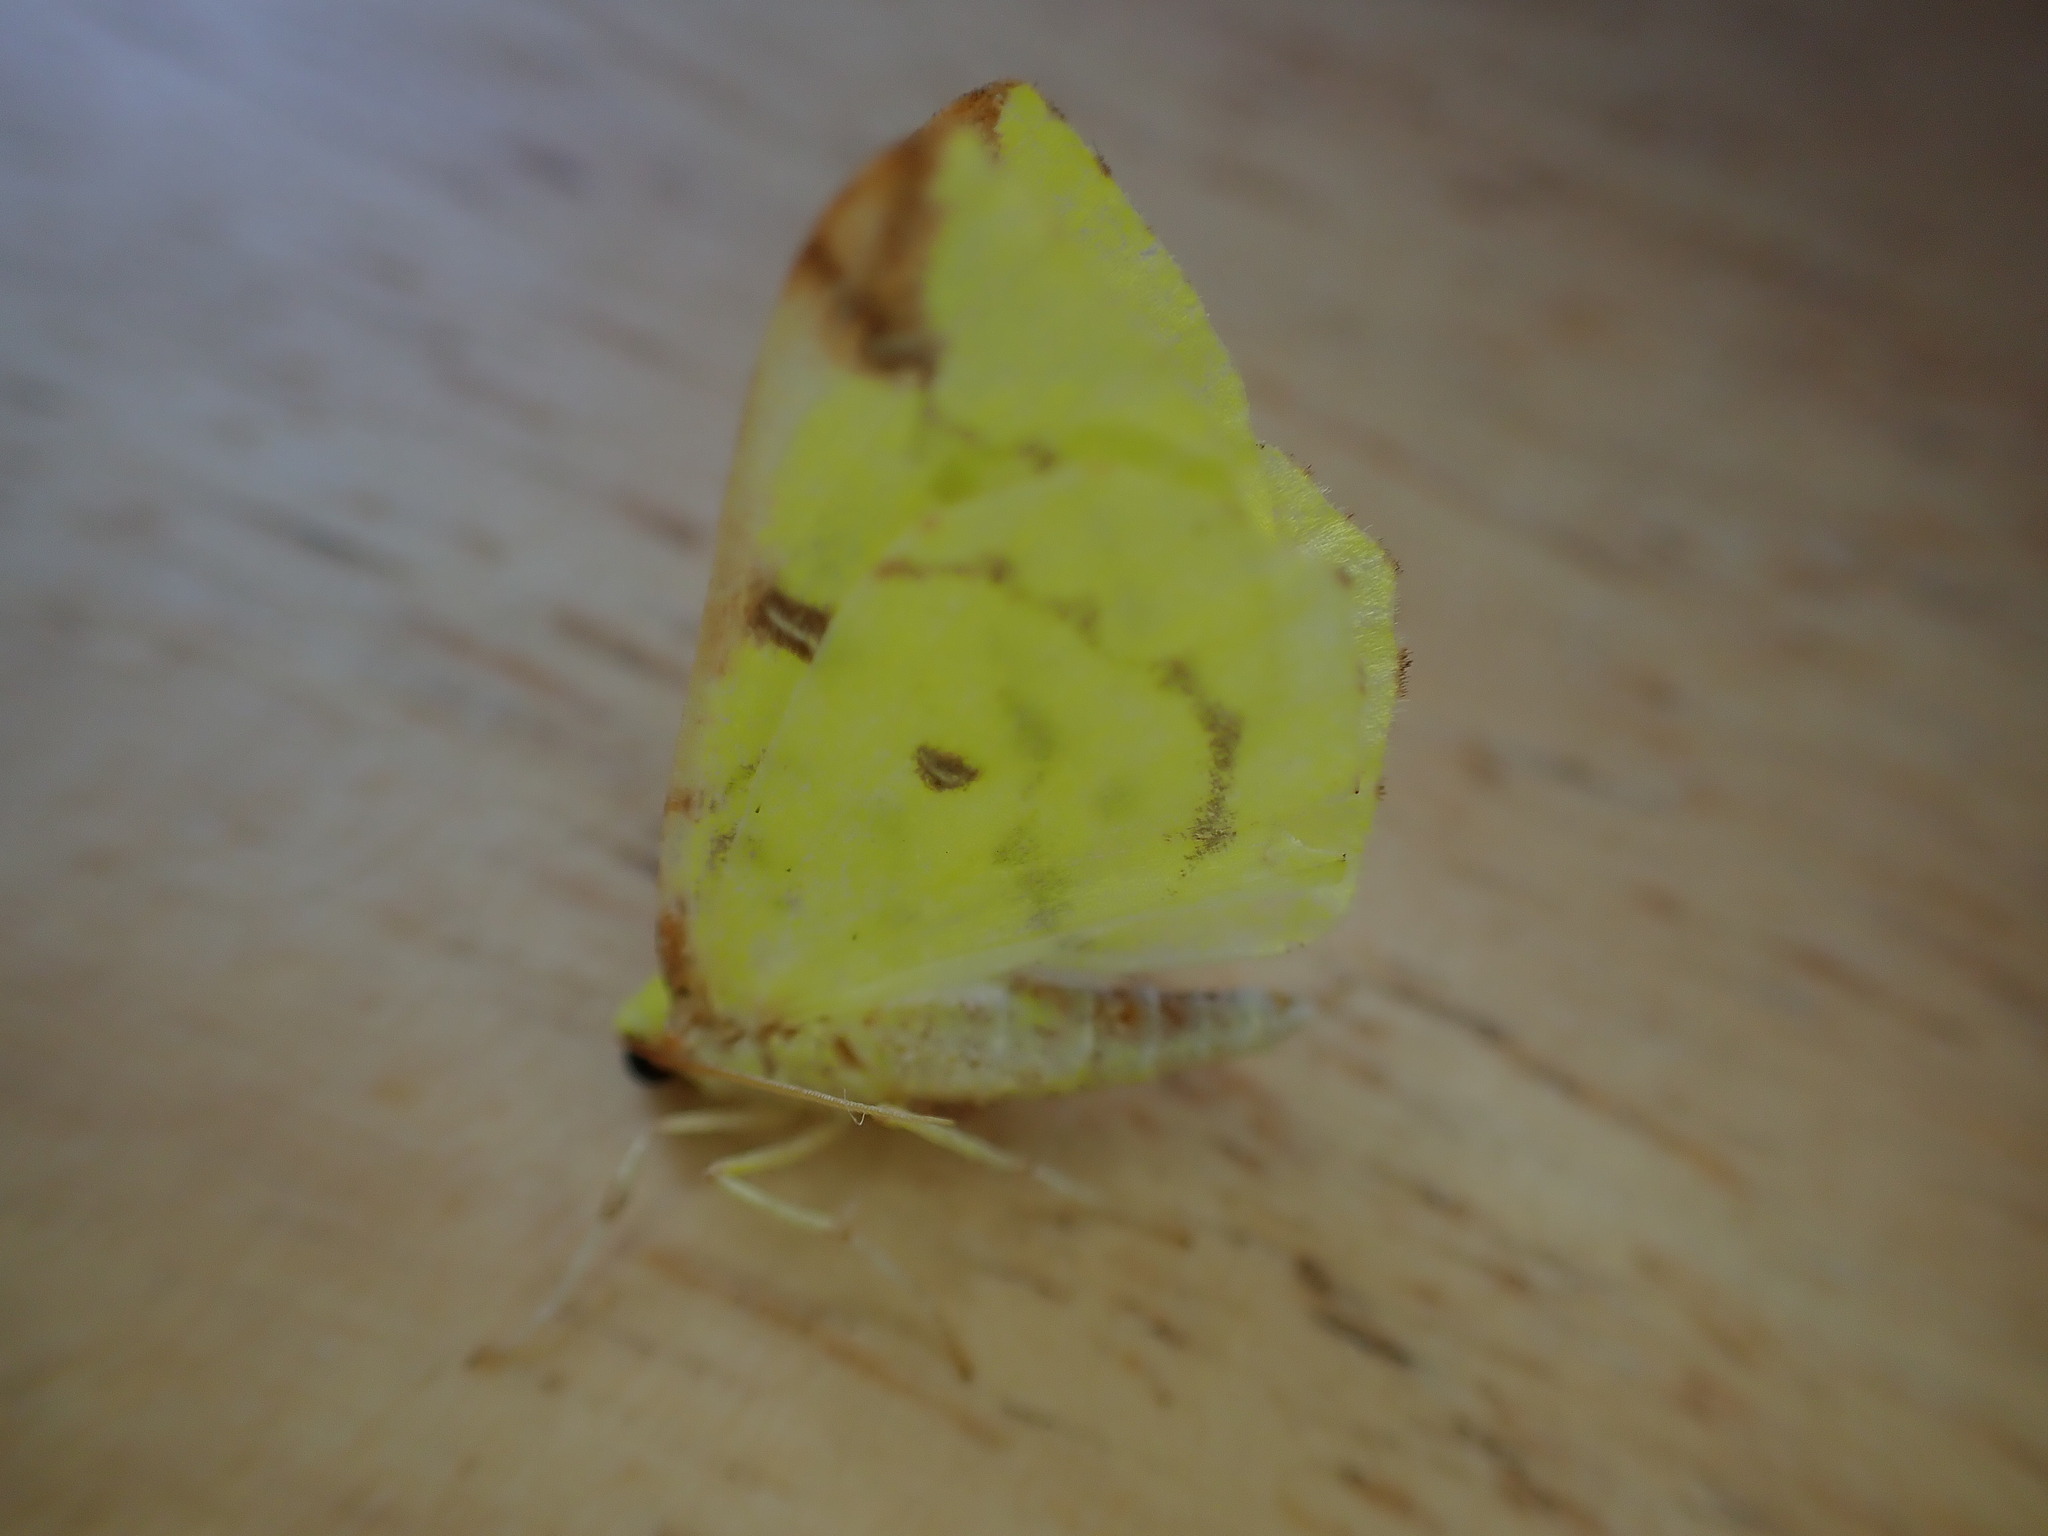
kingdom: Animalia
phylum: Arthropoda
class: Insecta
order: Lepidoptera
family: Geometridae
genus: Opisthograptis
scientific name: Opisthograptis luteolata
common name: Brimstone moth
